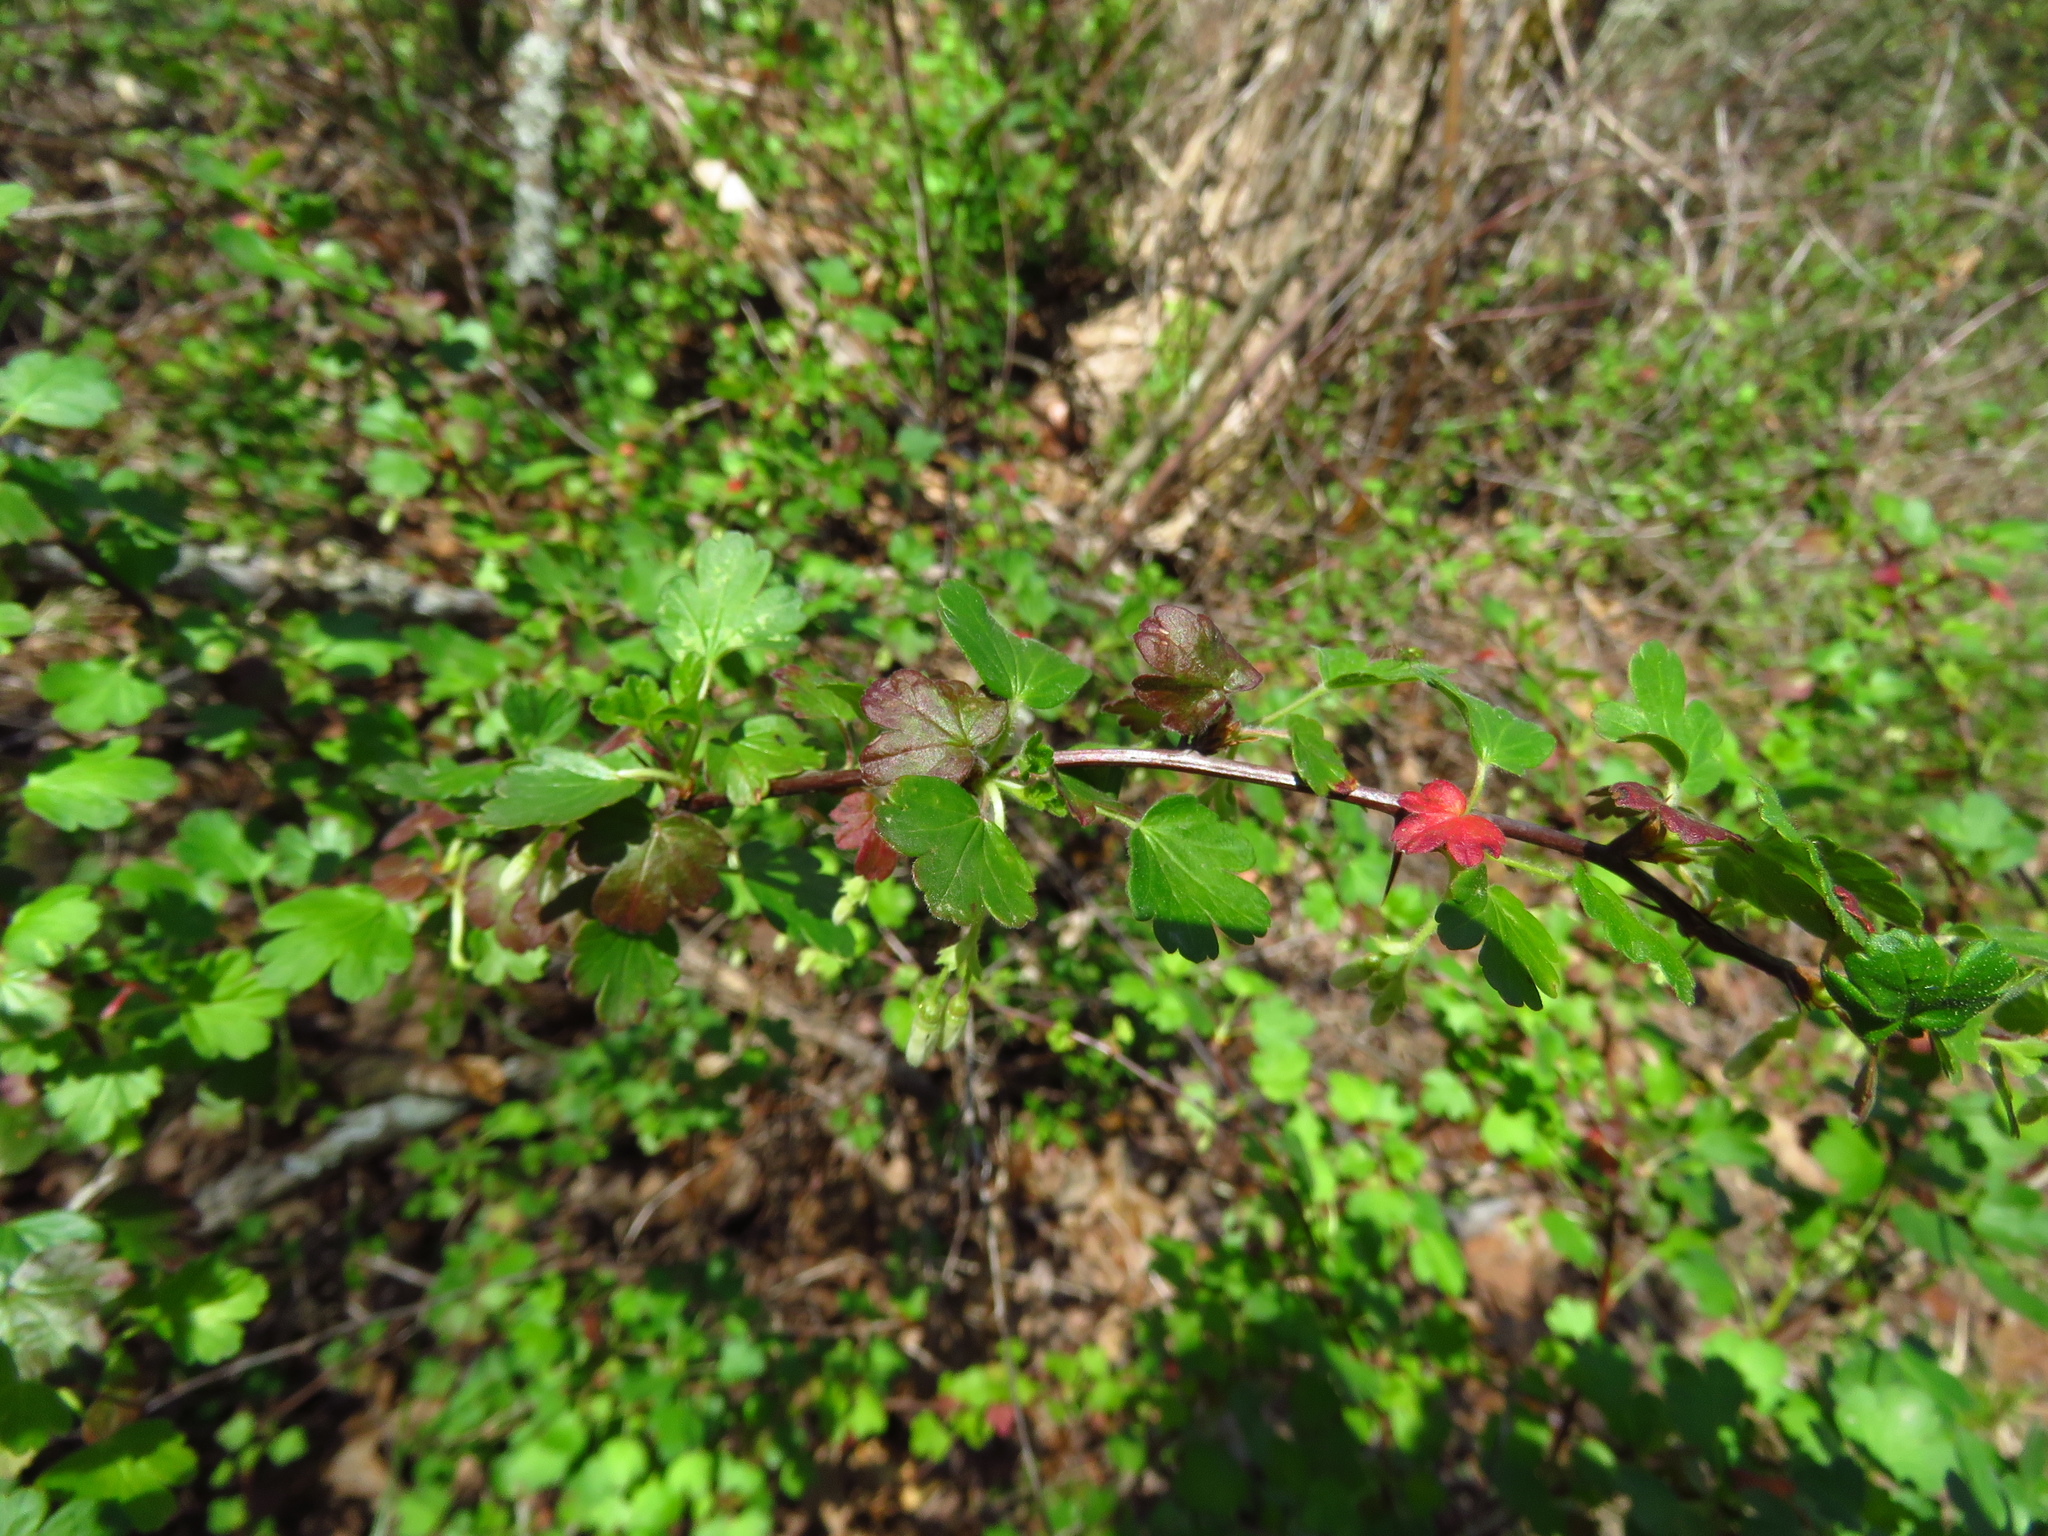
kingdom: Plantae
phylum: Tracheophyta
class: Magnoliopsida
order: Sapindales
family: Anacardiaceae
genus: Rhus
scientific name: Rhus aromatica
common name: Aromatic sumac
